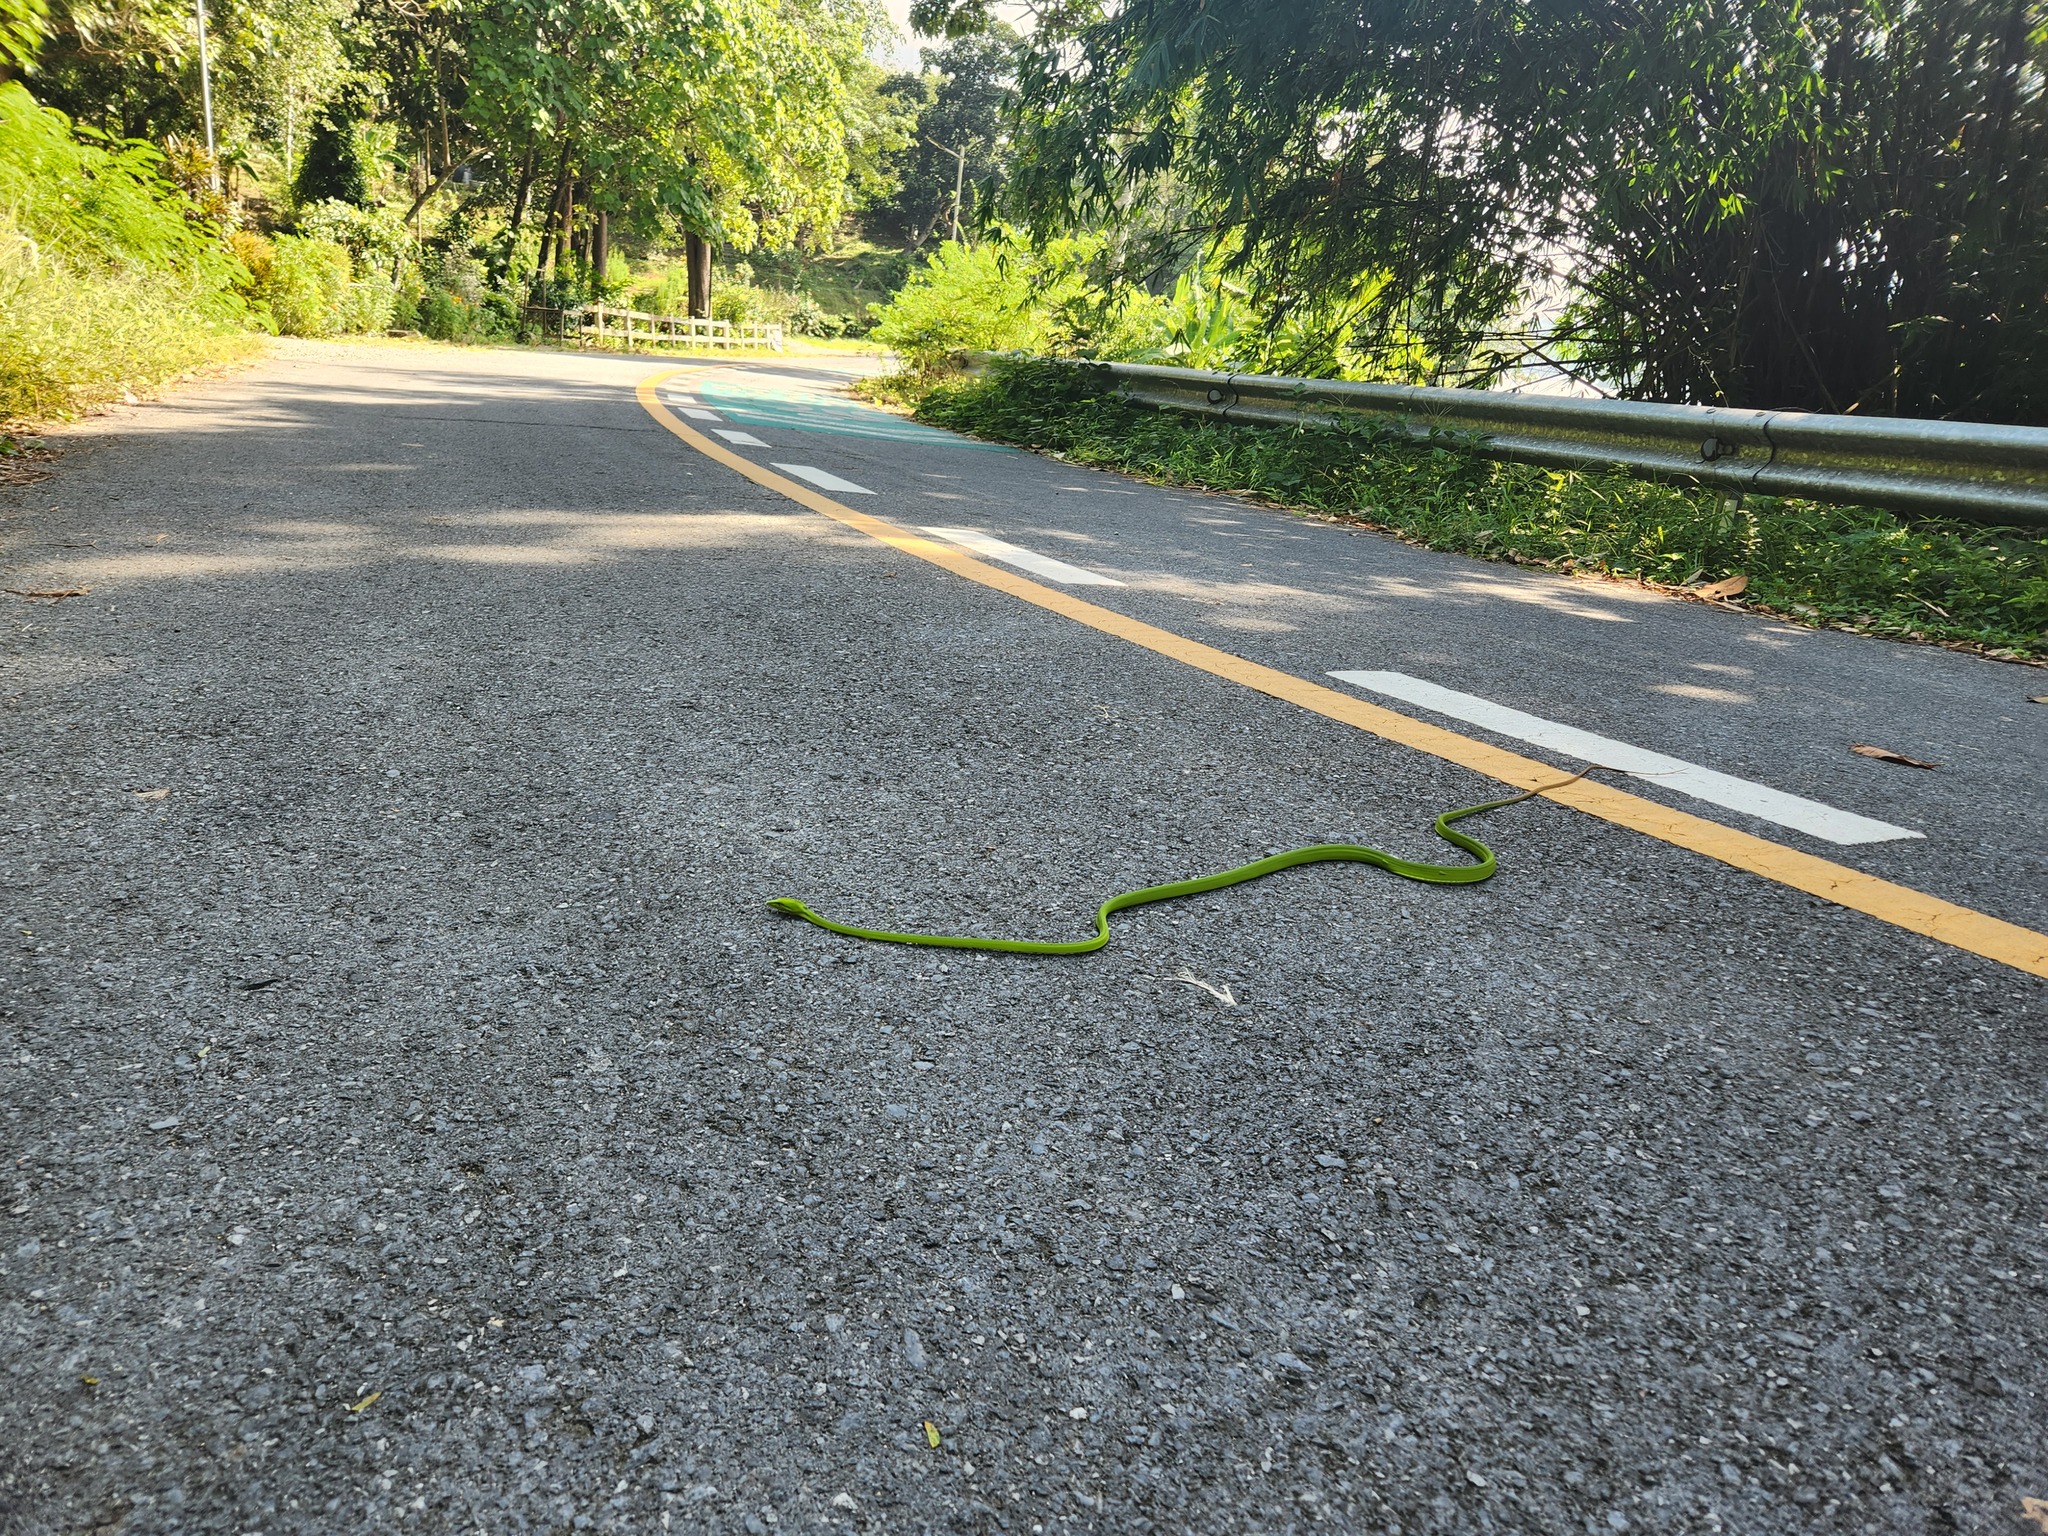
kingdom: Animalia
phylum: Chordata
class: Squamata
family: Colubridae
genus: Ahaetulla
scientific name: Ahaetulla prasina
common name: Oriental whip snake
